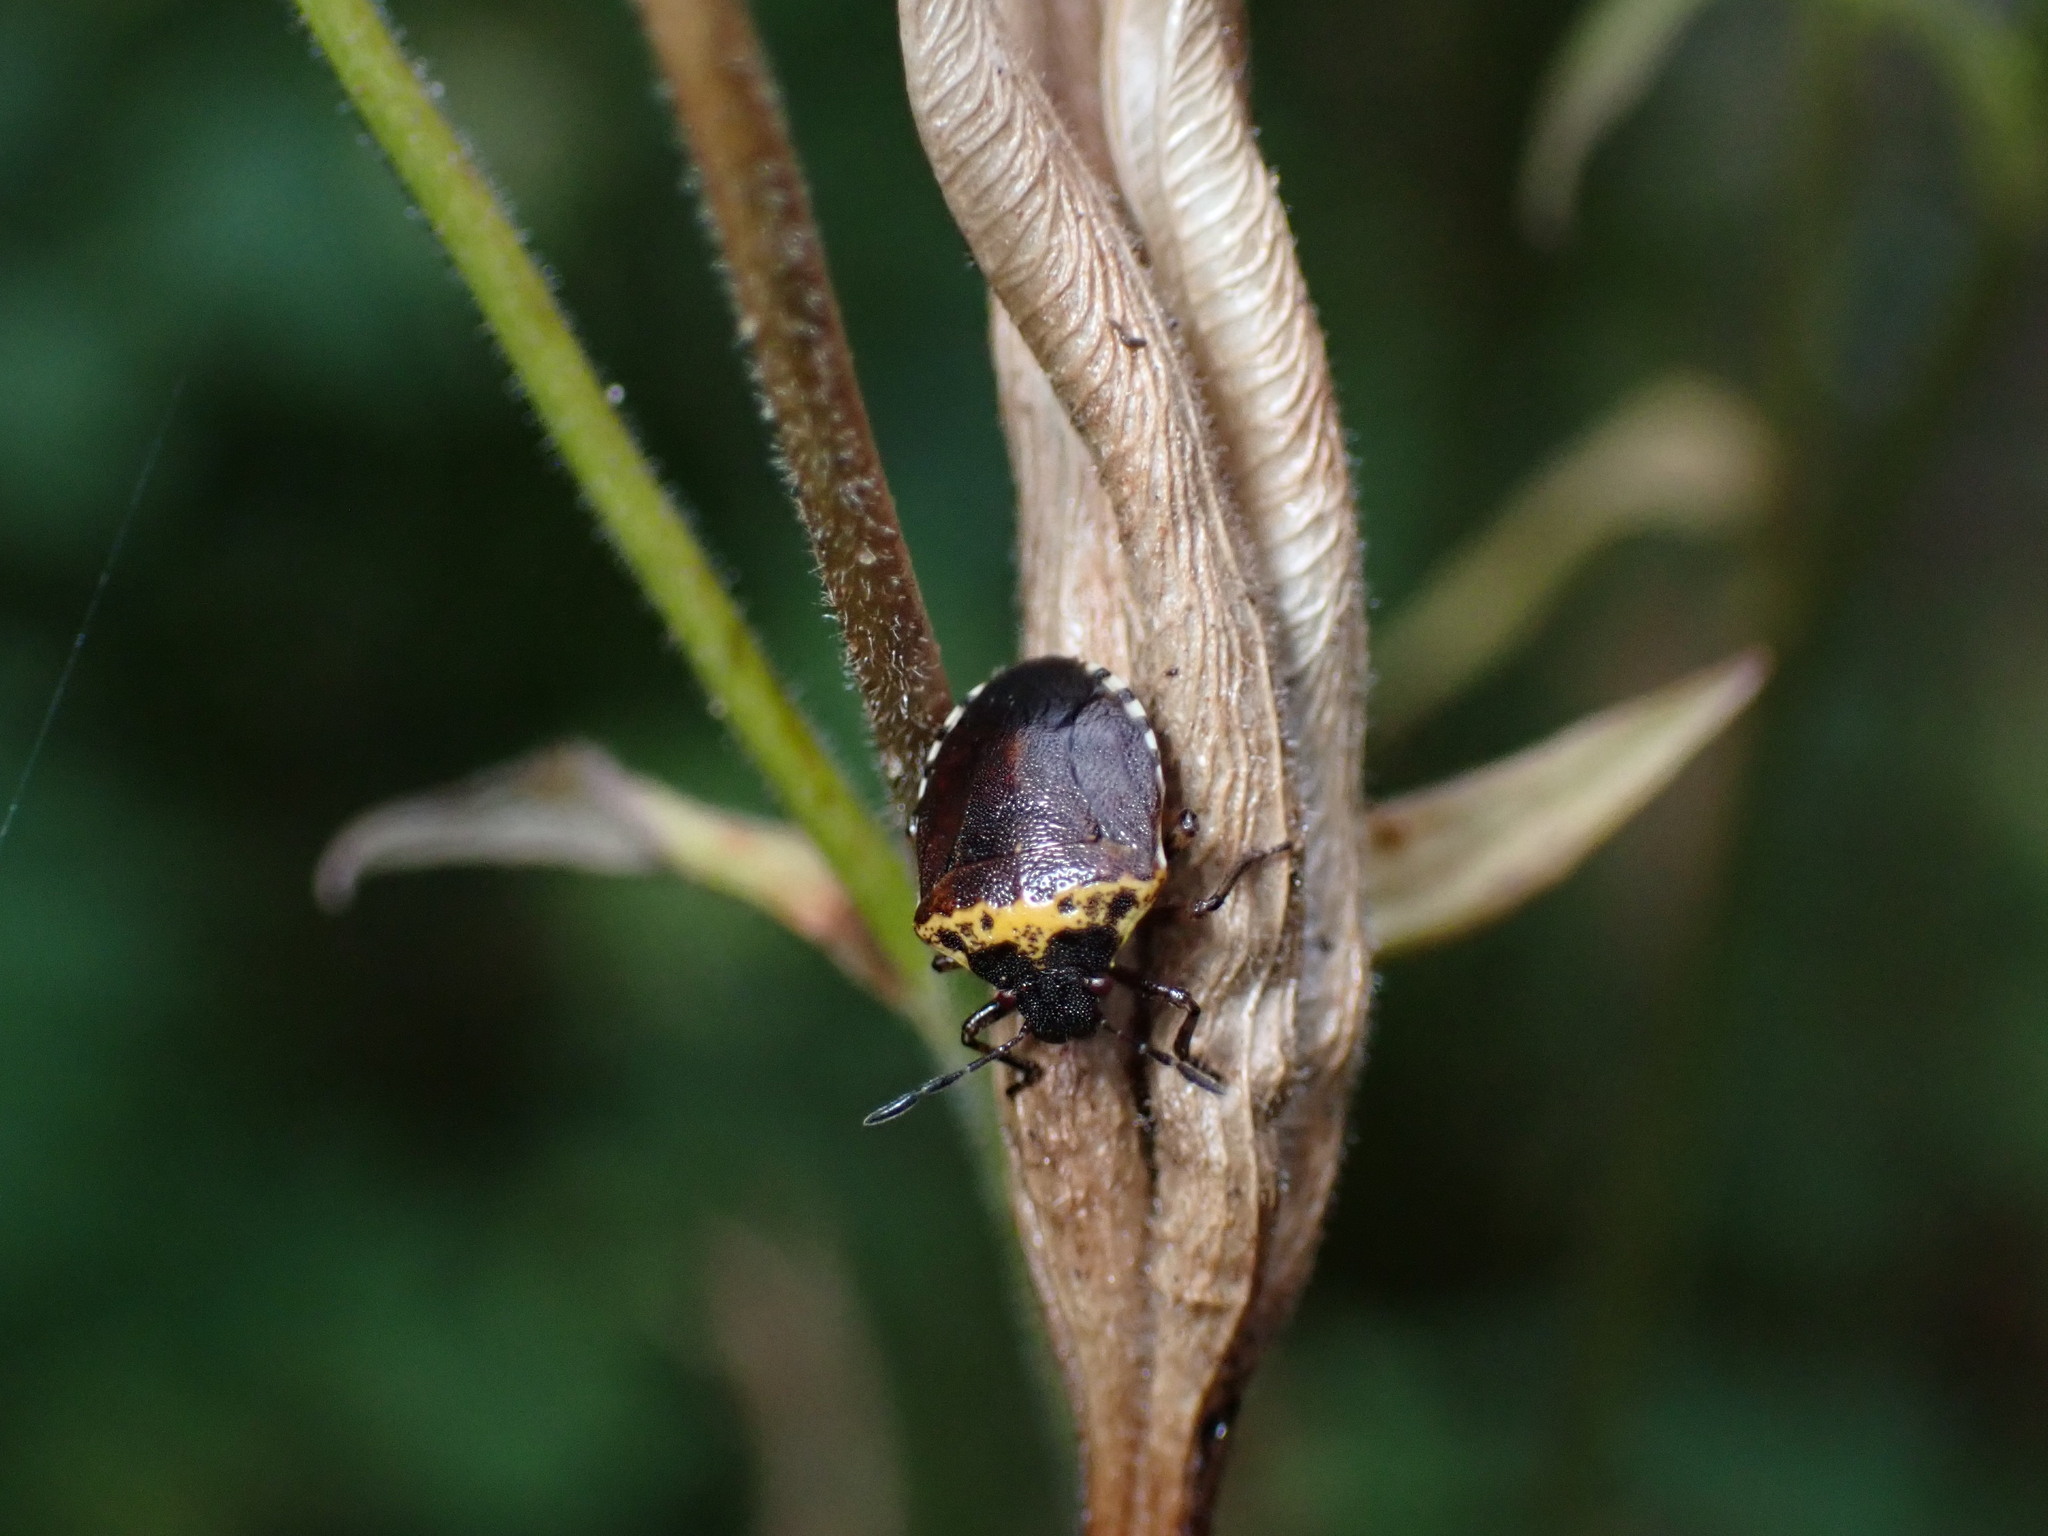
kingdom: Animalia
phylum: Arthropoda
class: Insecta
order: Hemiptera
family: Pentatomidae
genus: Cosmopepla
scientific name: Cosmopepla uhleri
